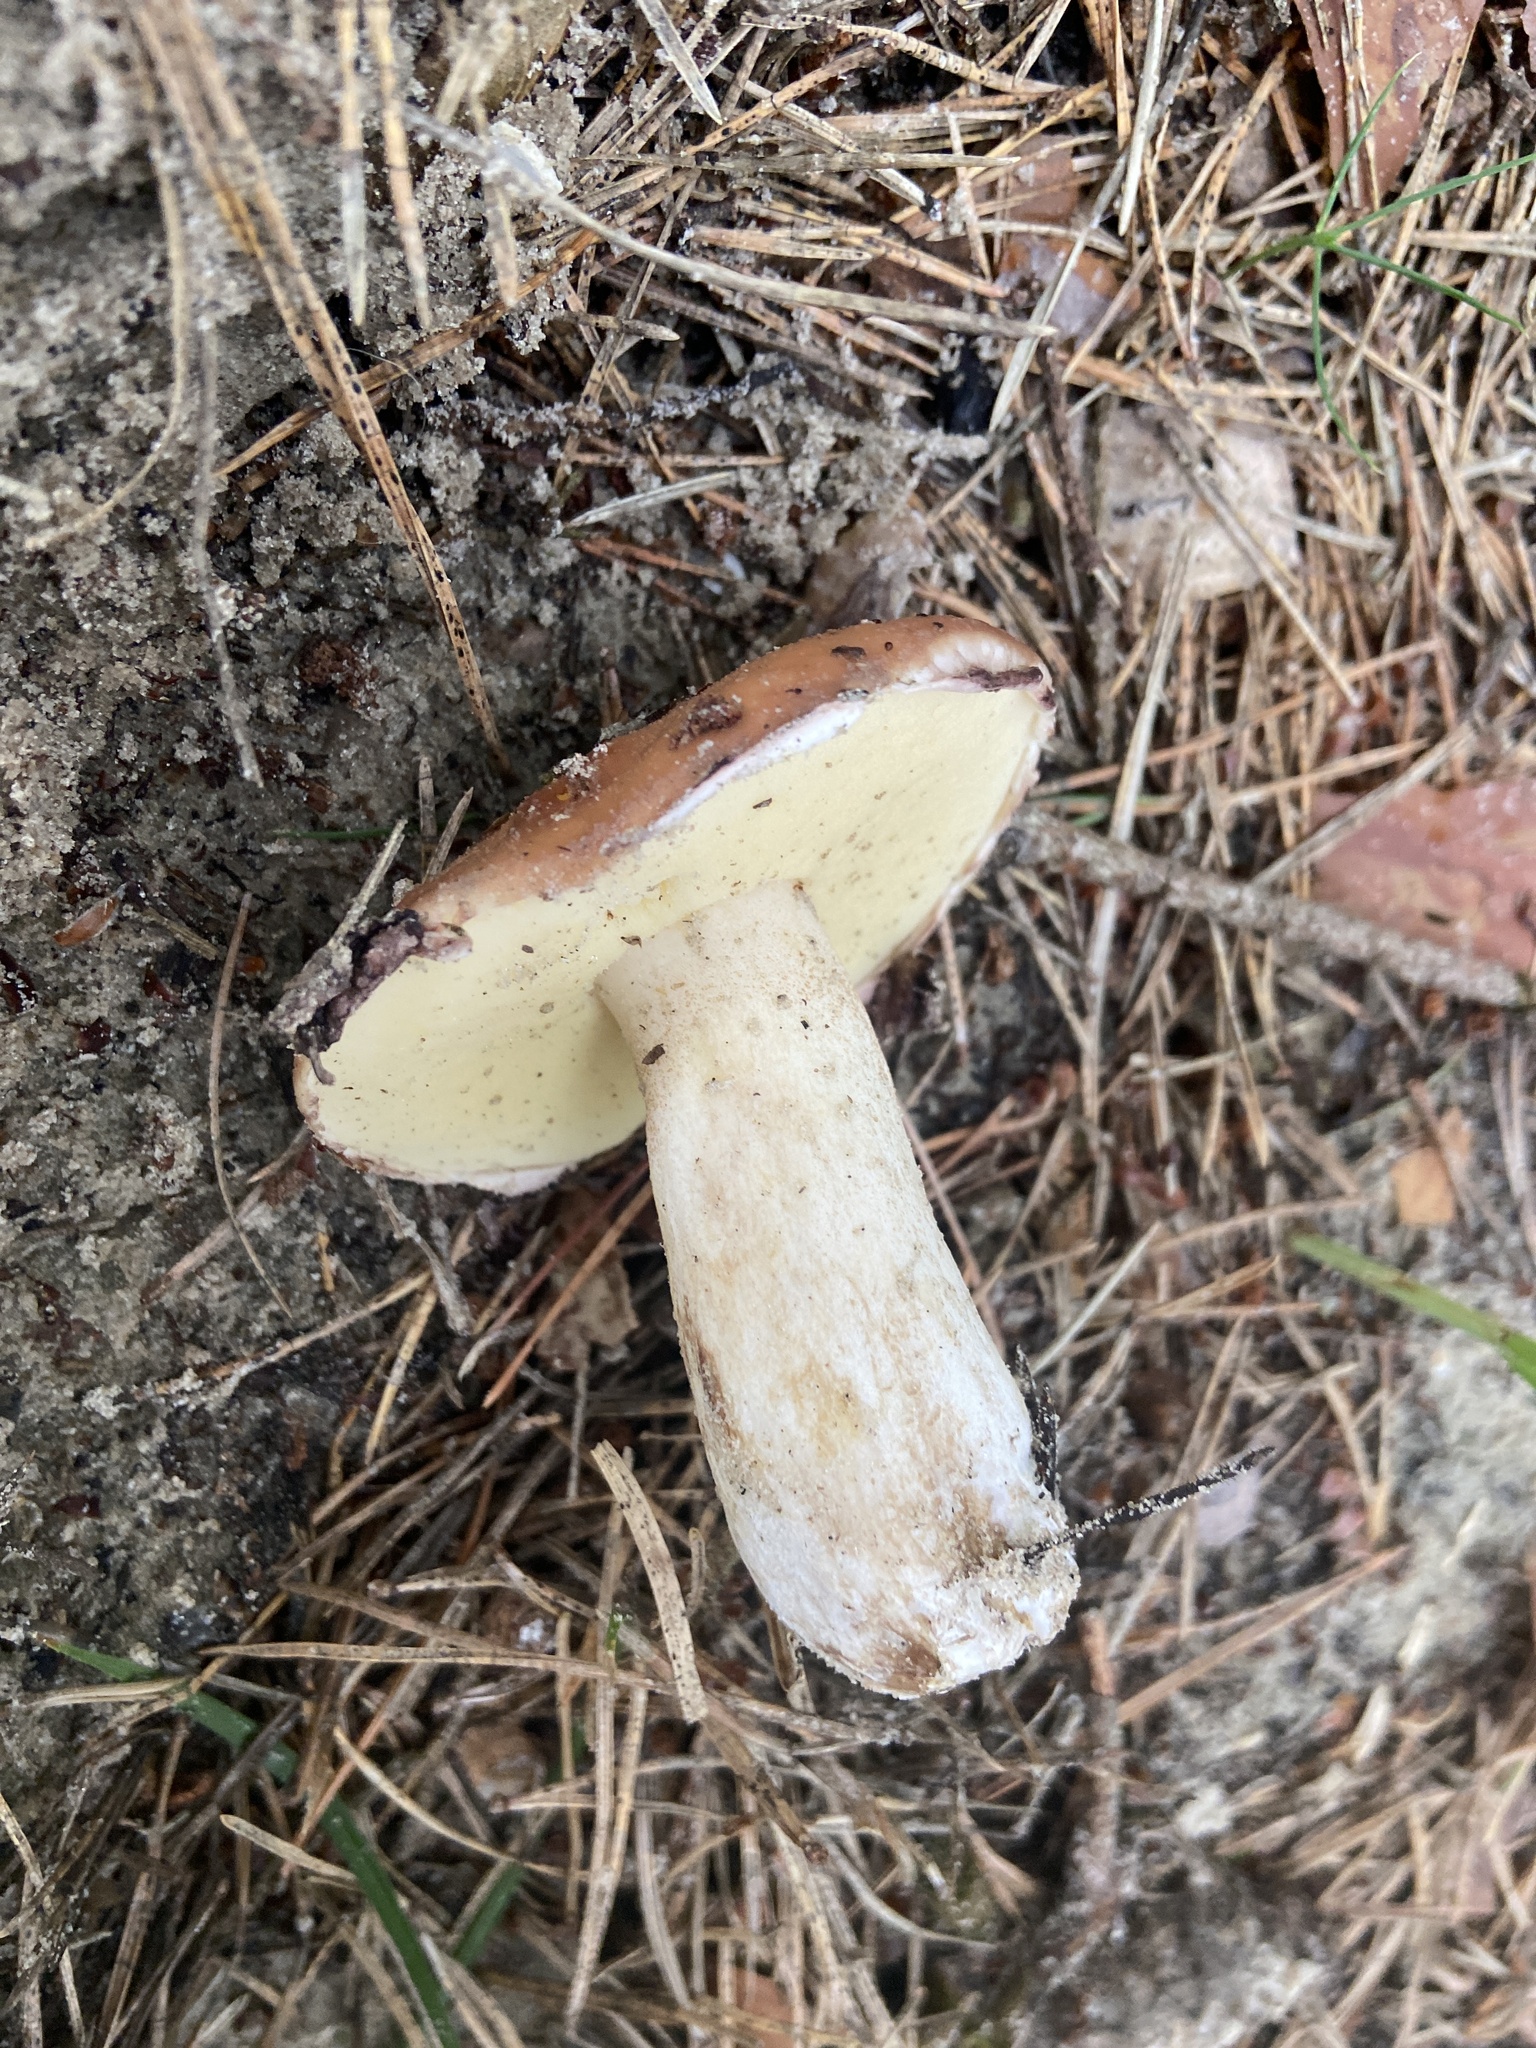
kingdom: Fungi
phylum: Basidiomycota
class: Agaricomycetes
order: Boletales
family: Suillaceae
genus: Suillus
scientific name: Suillus granulatus
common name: Weeping bolete
